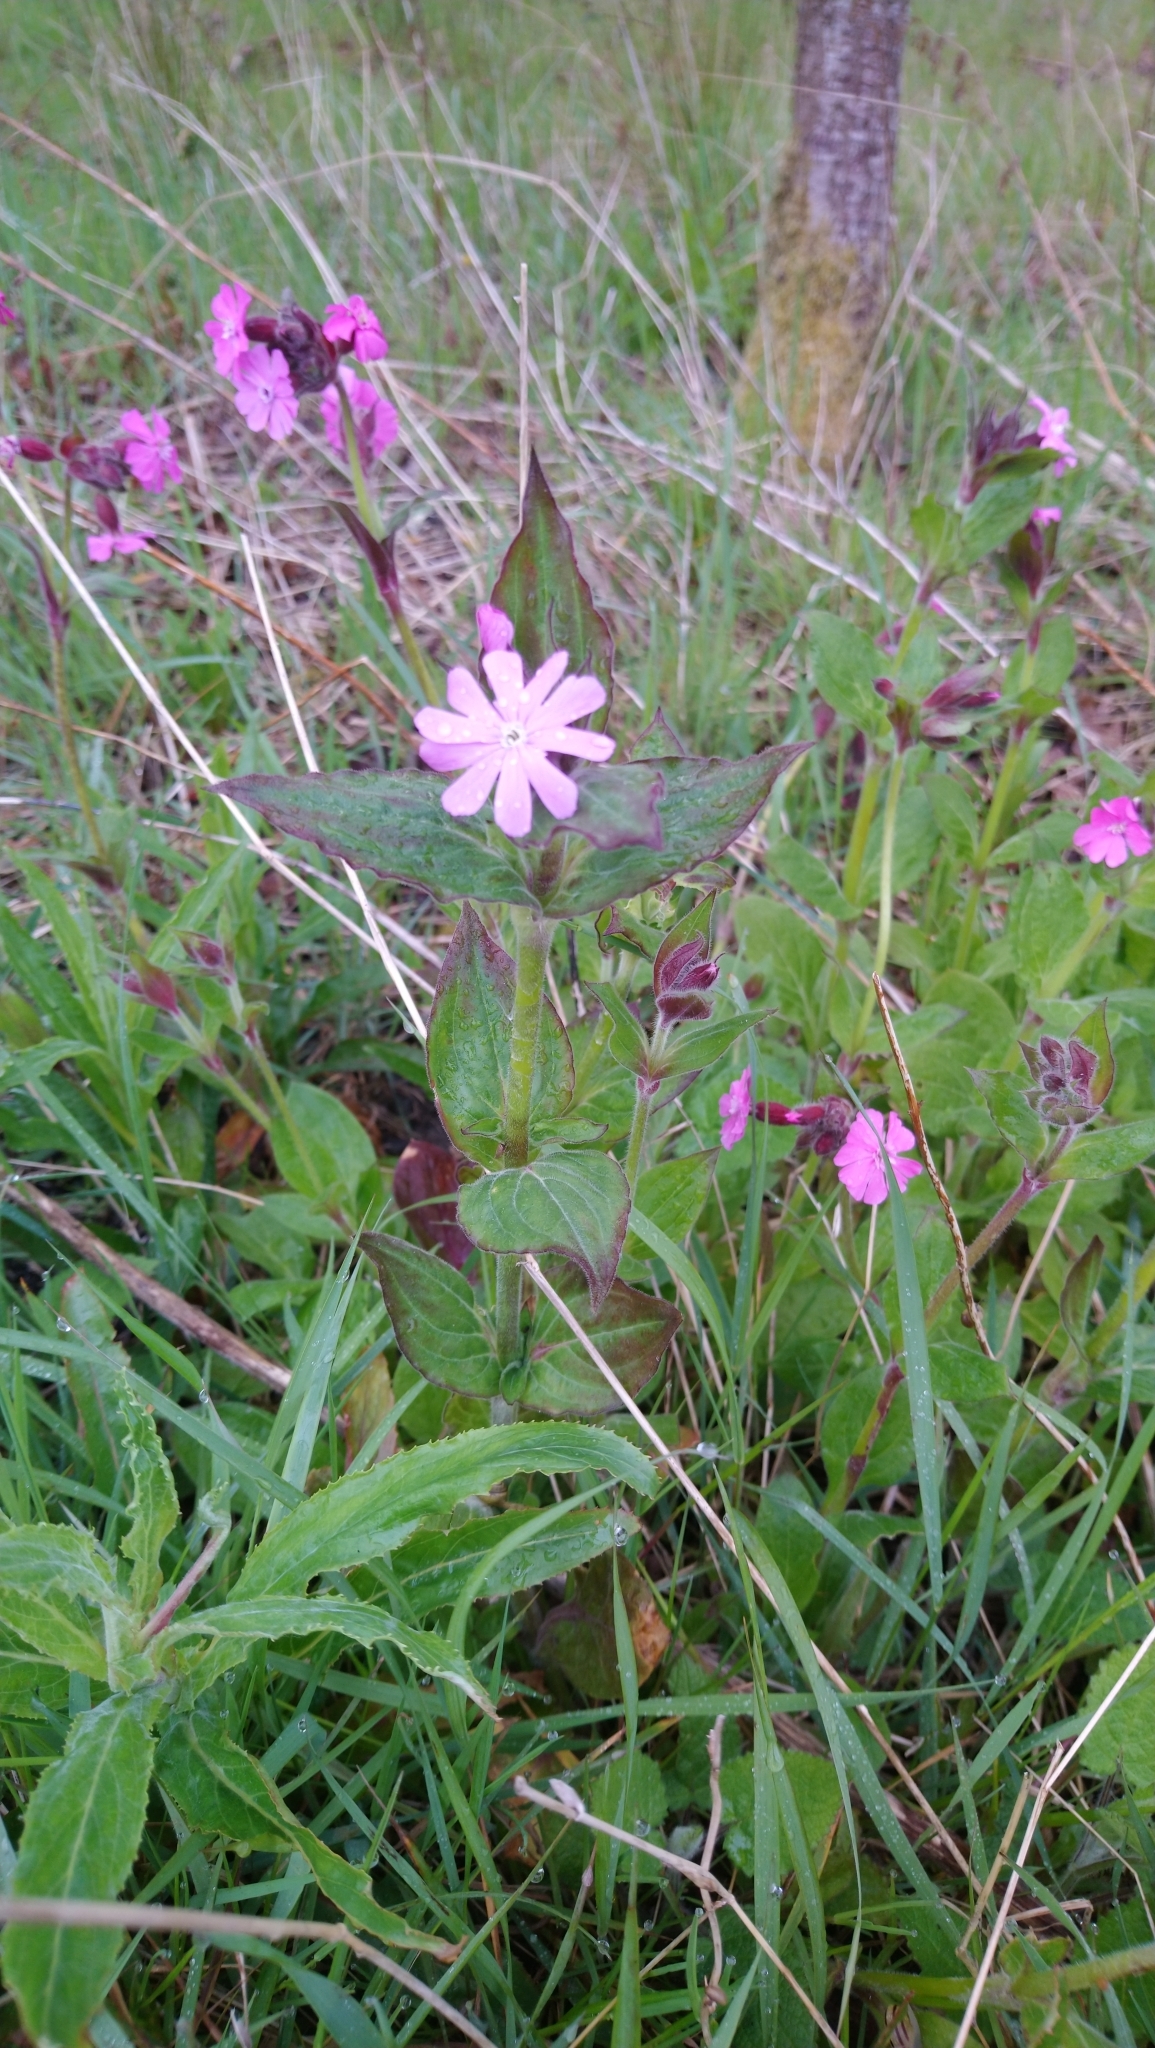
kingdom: Plantae
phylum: Tracheophyta
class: Magnoliopsida
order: Caryophyllales
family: Caryophyllaceae
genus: Silene
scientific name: Silene dioica
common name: Red campion
